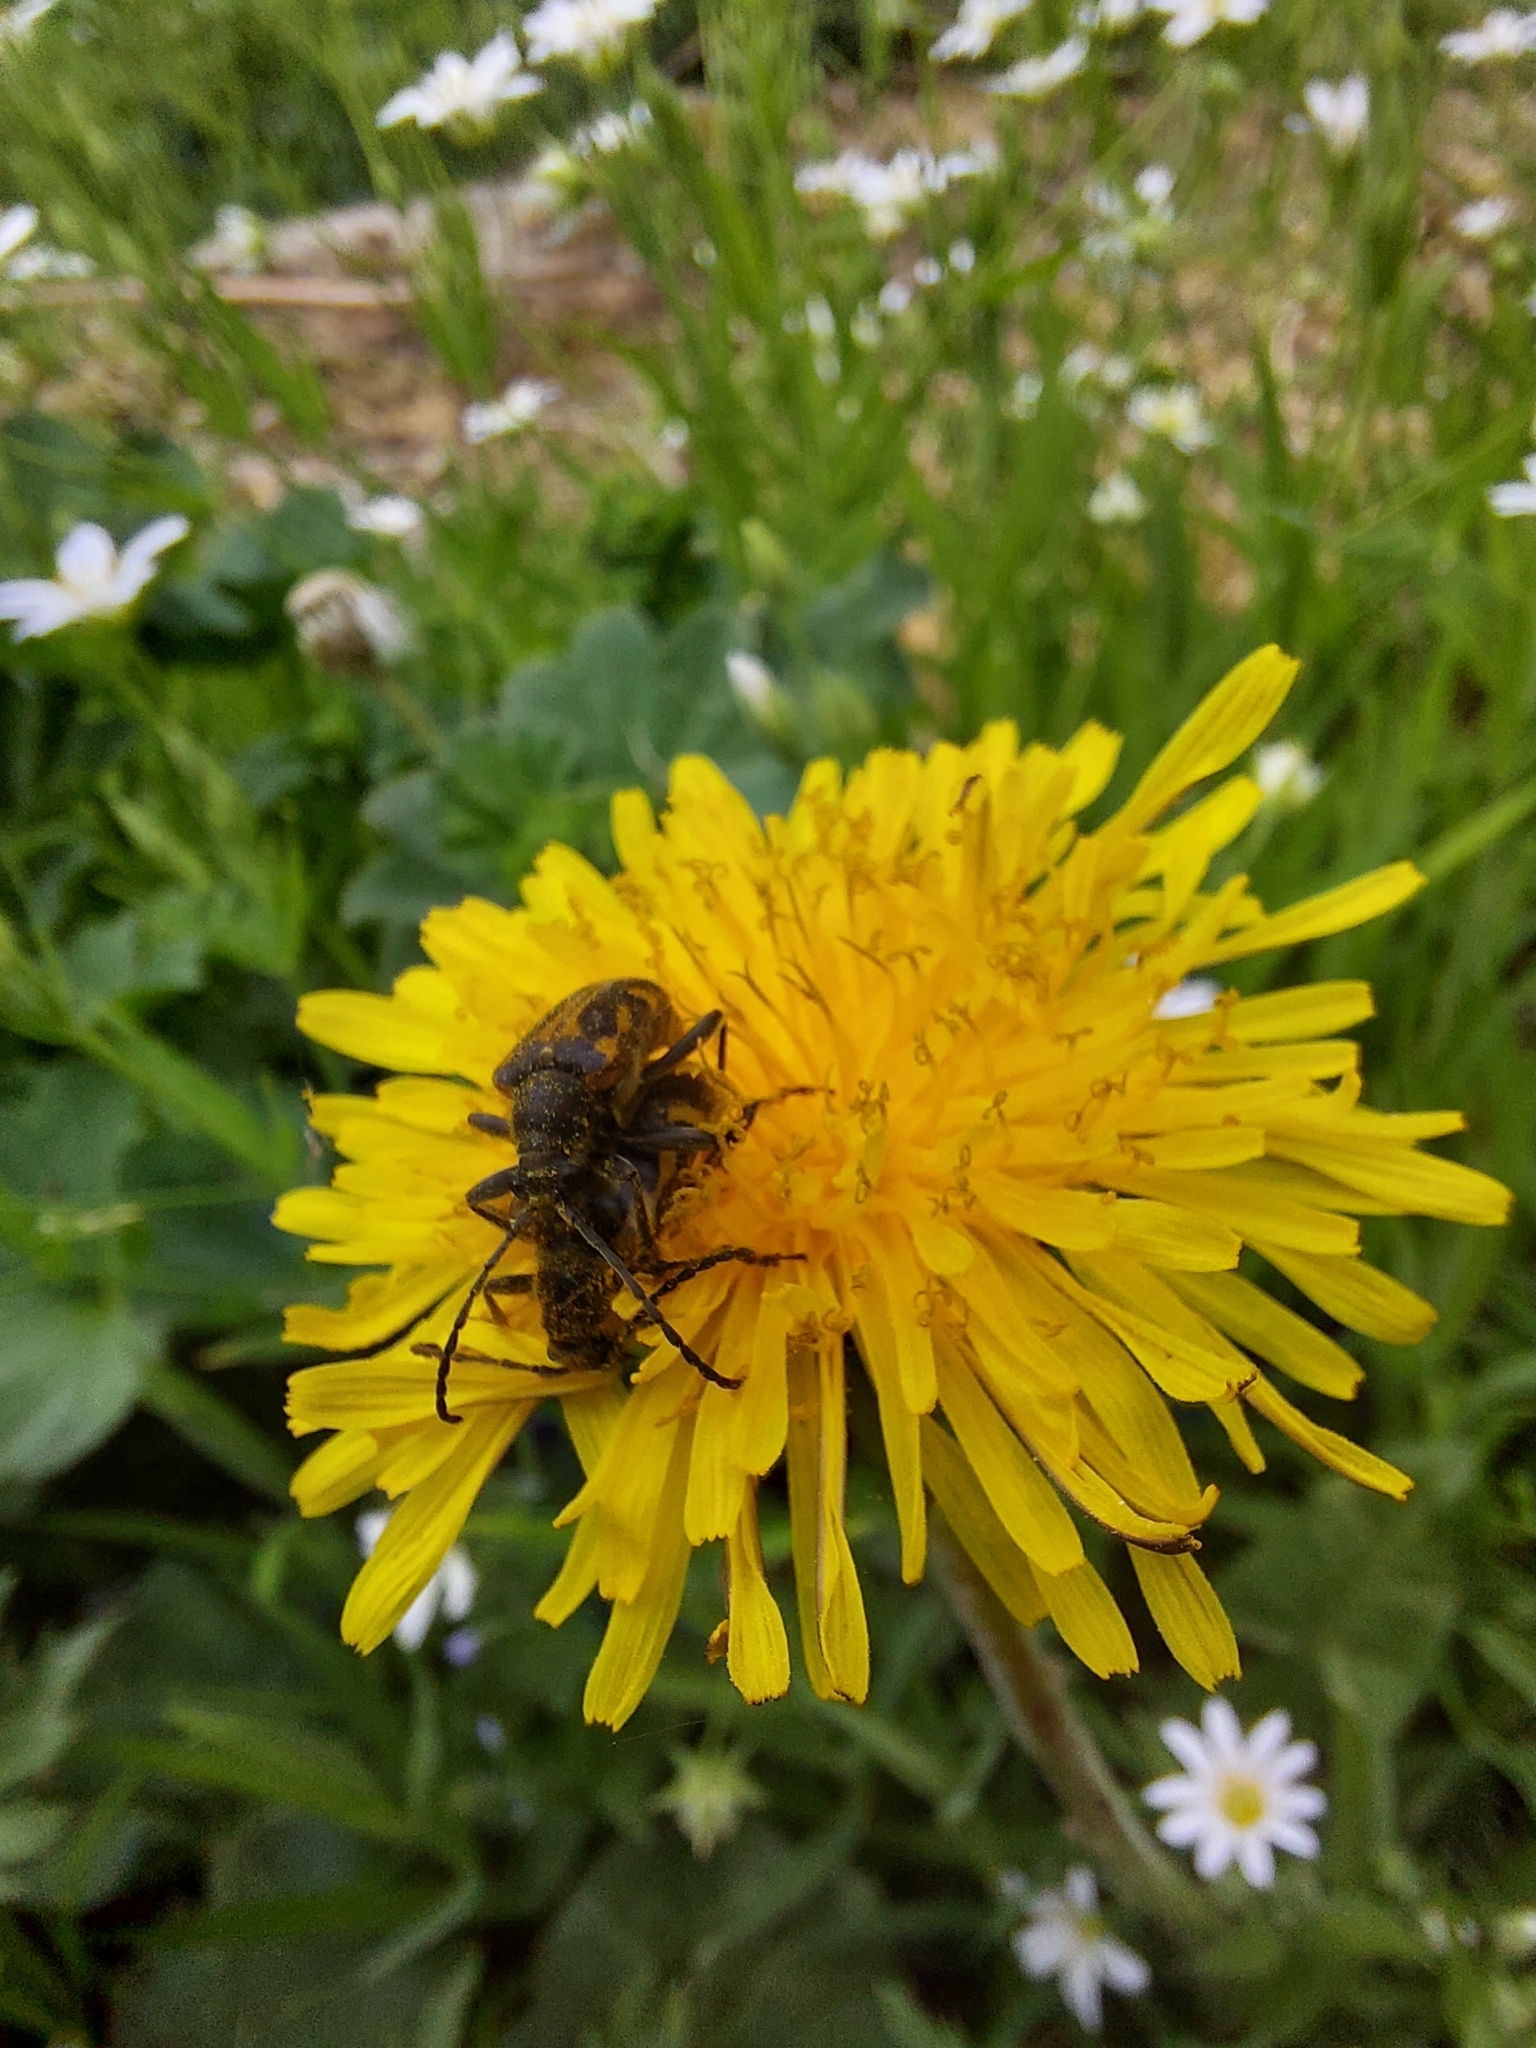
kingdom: Animalia
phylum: Arthropoda
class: Insecta
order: Coleoptera
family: Cerambycidae
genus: Brachyta
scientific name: Brachyta interrogationis
